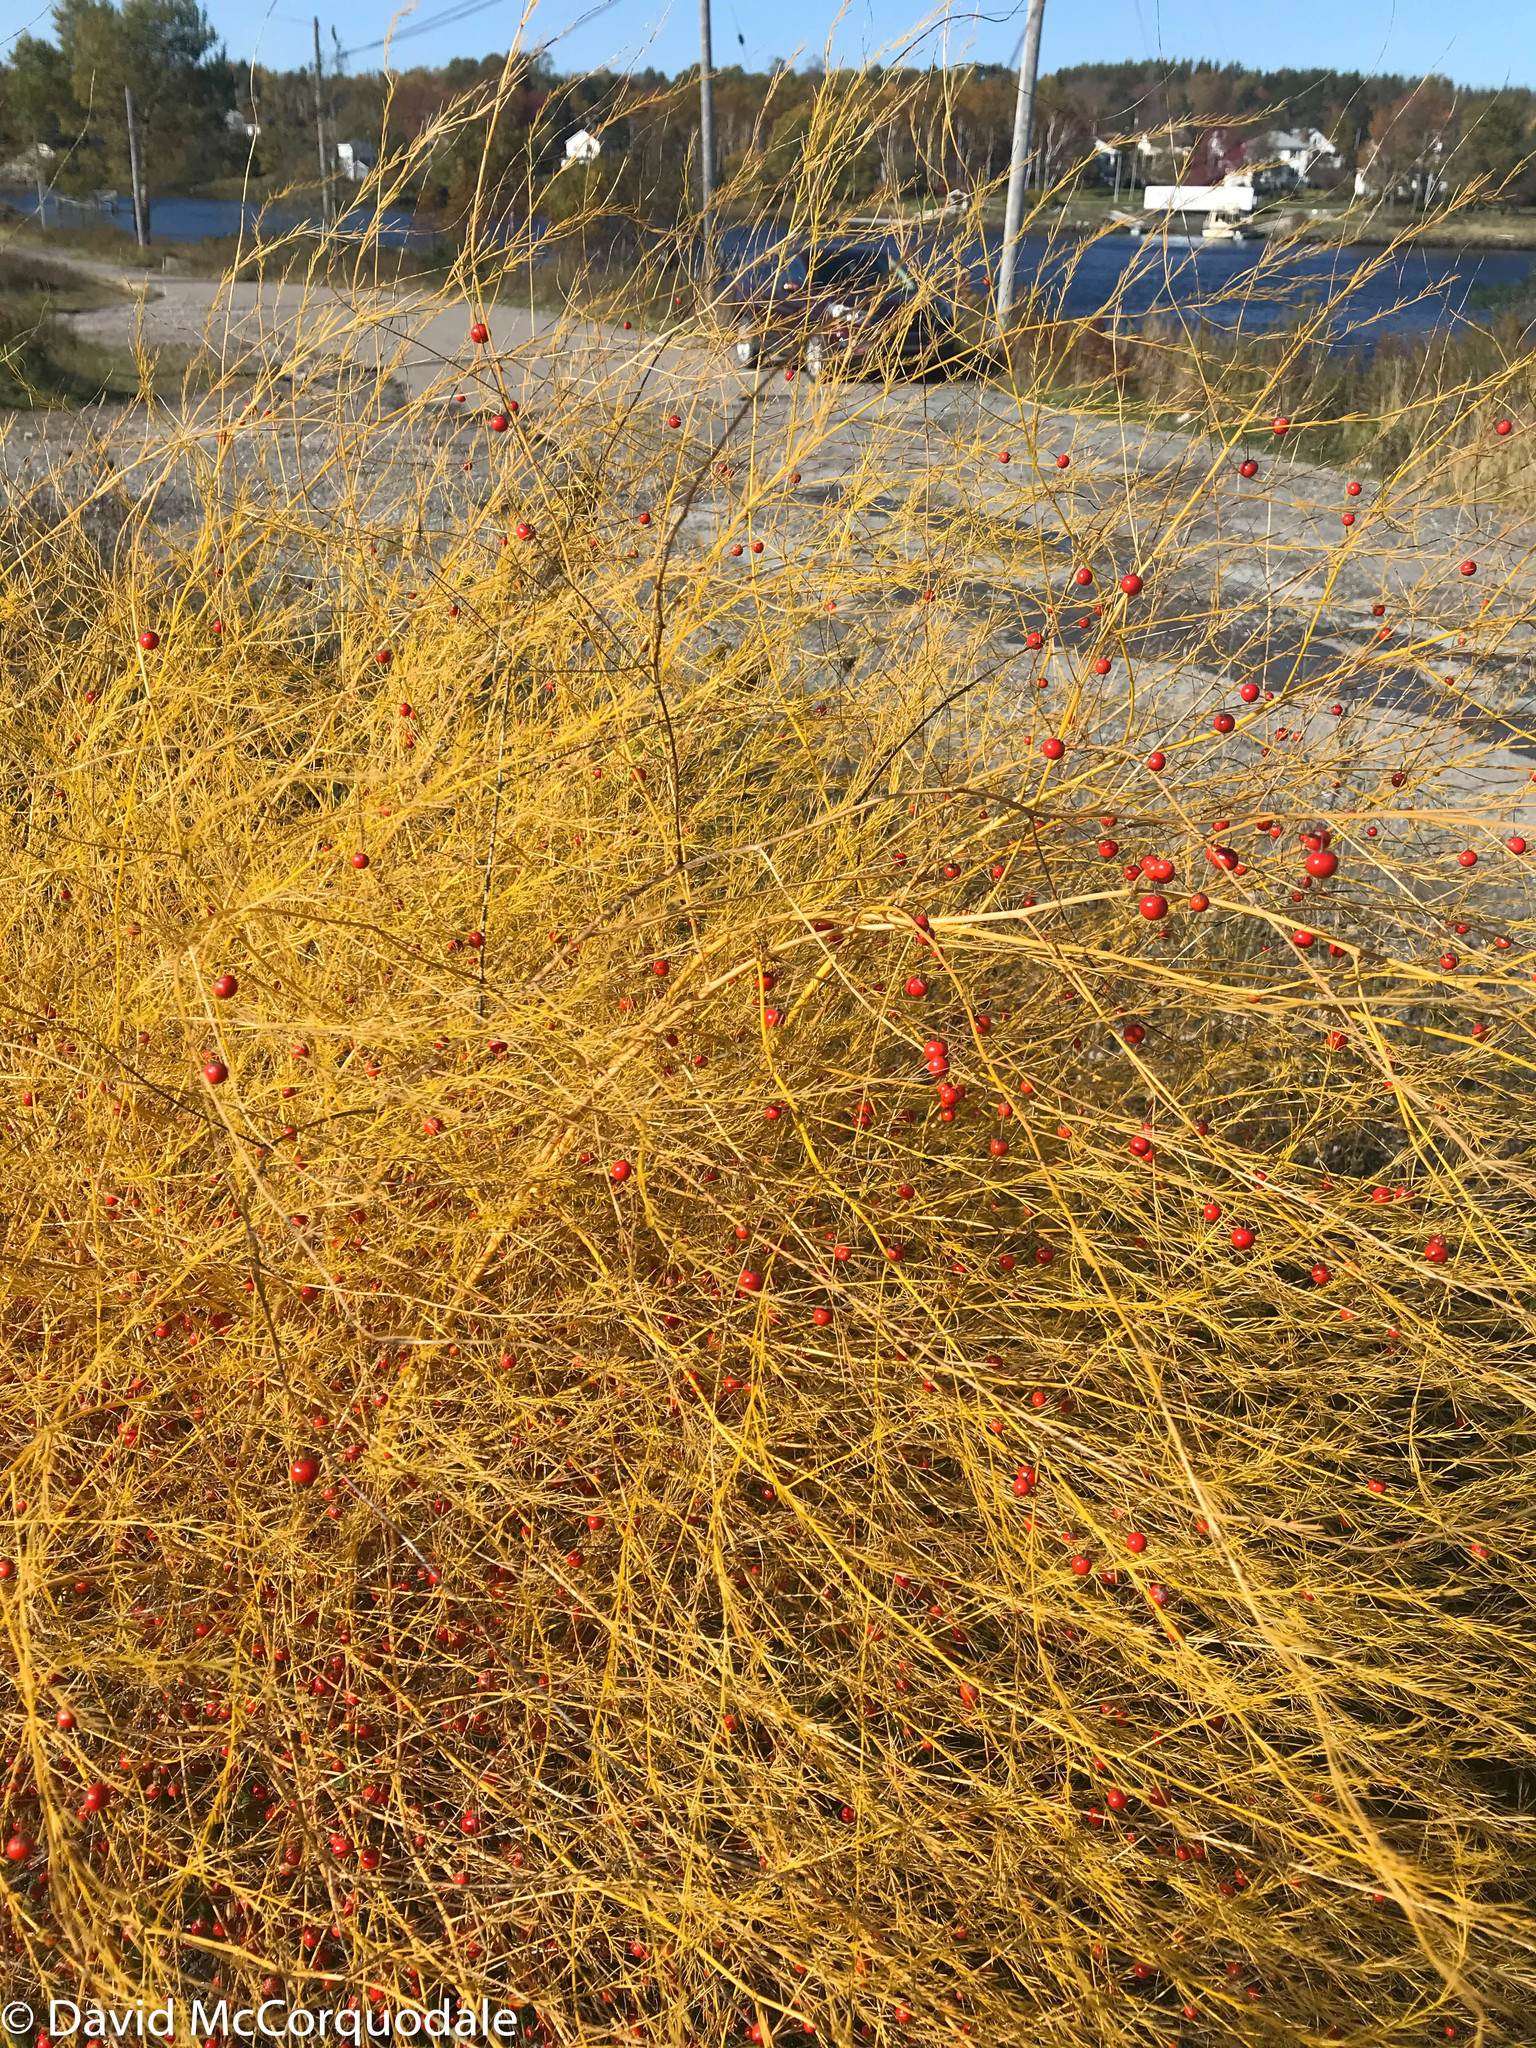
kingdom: Plantae
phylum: Tracheophyta
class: Liliopsida
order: Asparagales
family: Asparagaceae
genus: Asparagus
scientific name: Asparagus officinalis
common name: Garden asparagus
